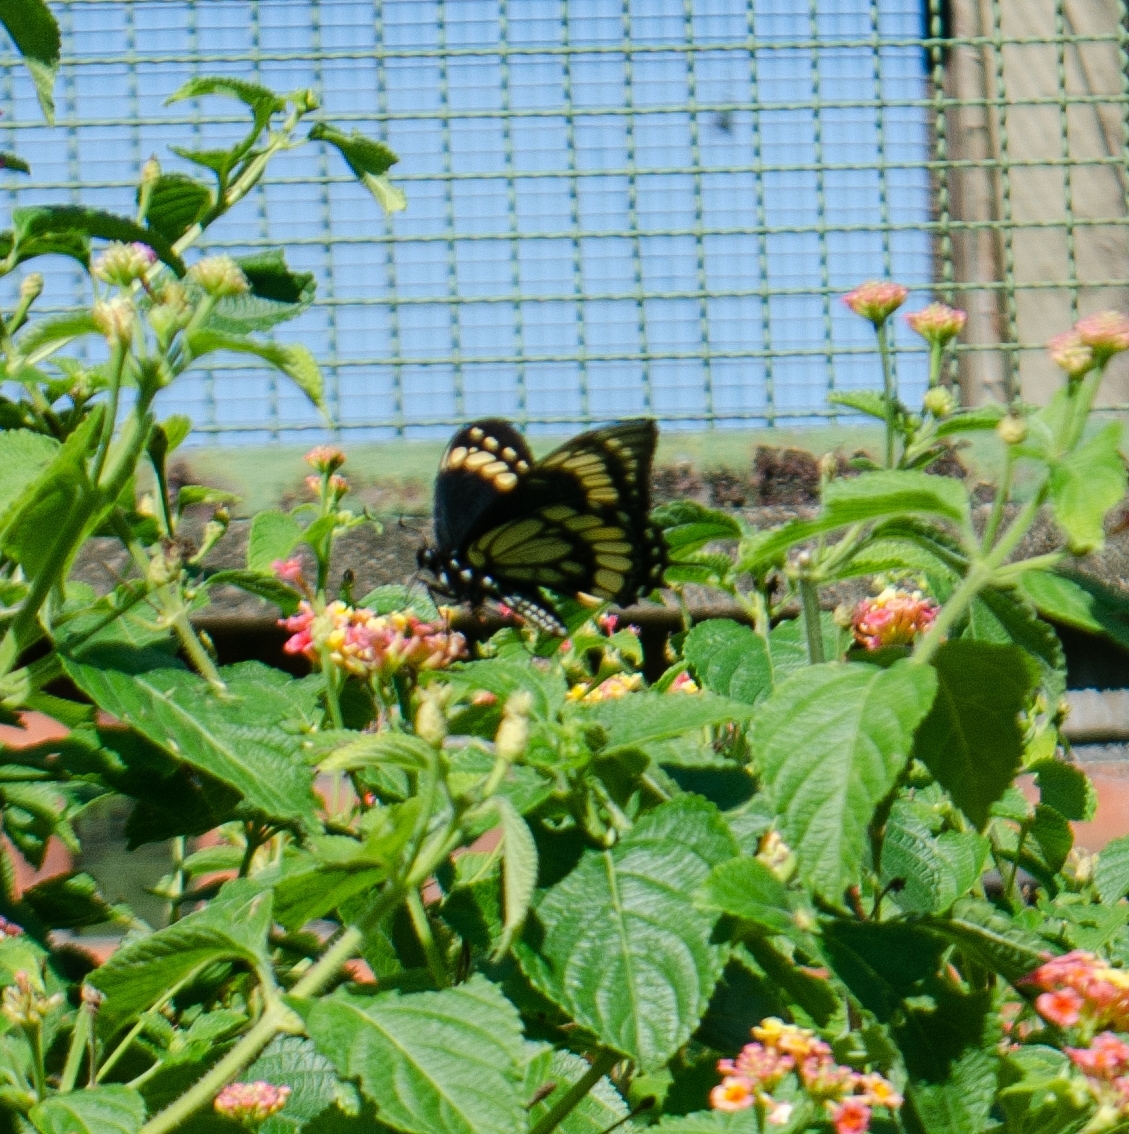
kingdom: Animalia
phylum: Arthropoda
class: Insecta
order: Lepidoptera
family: Papilionidae
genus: Papilio
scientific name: Papilio scamander
